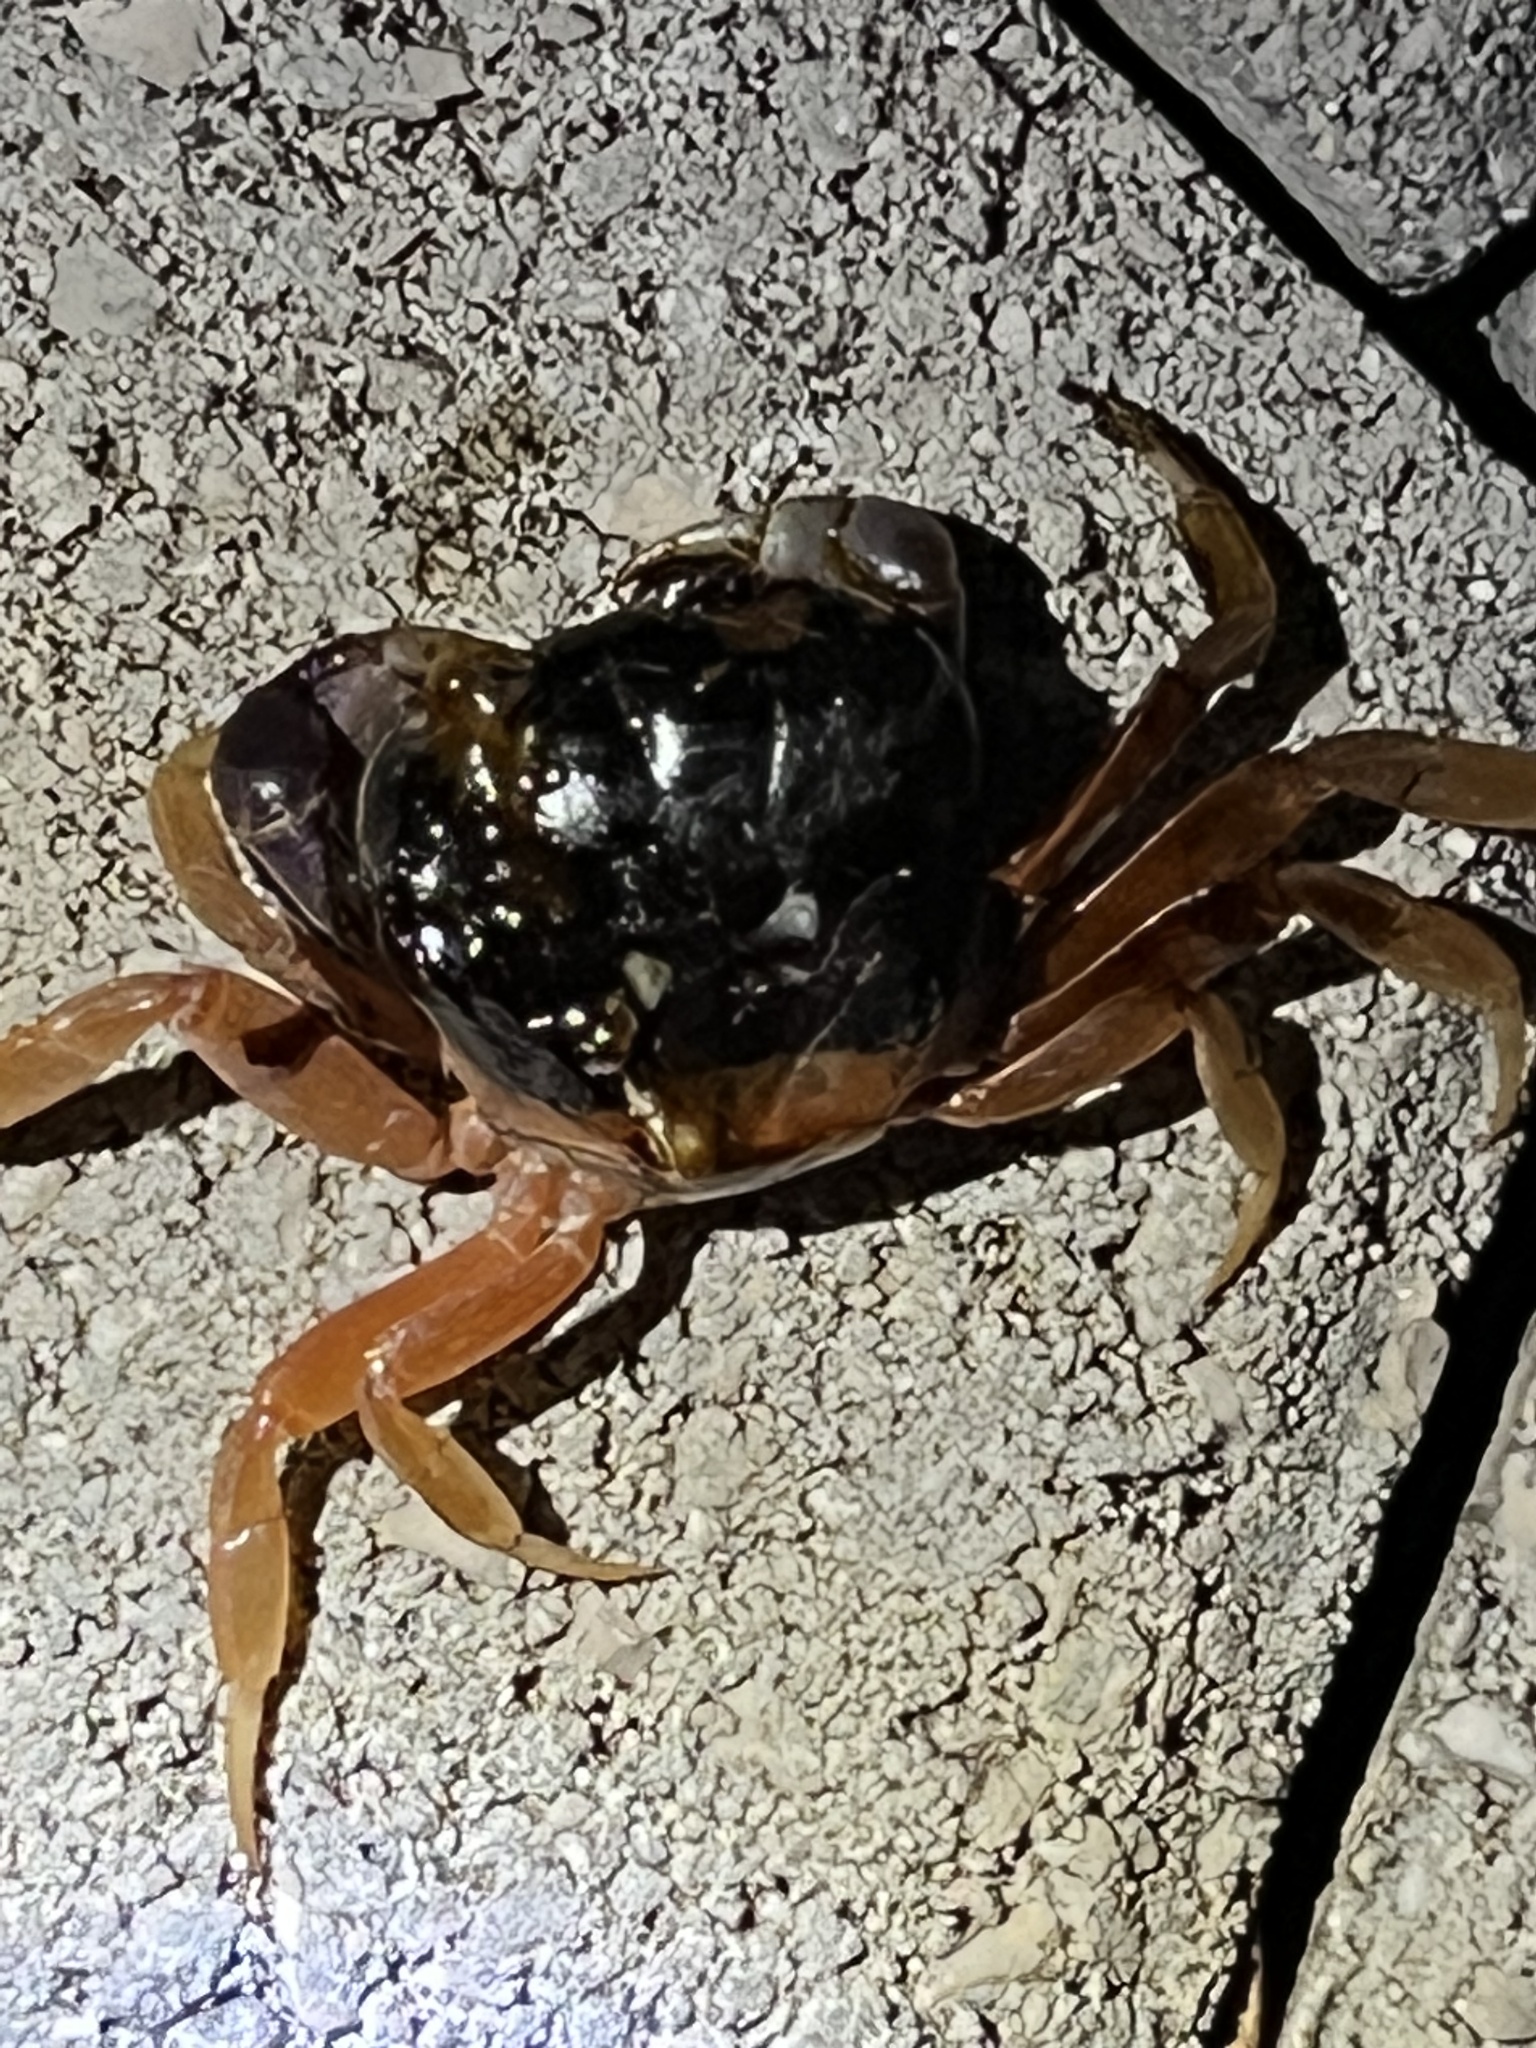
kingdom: Animalia
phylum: Arthropoda
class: Malacostraca
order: Decapoda
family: Gecarcinidae
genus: Gecarcinus
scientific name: Gecarcinus quadratus
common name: Halloween crab
